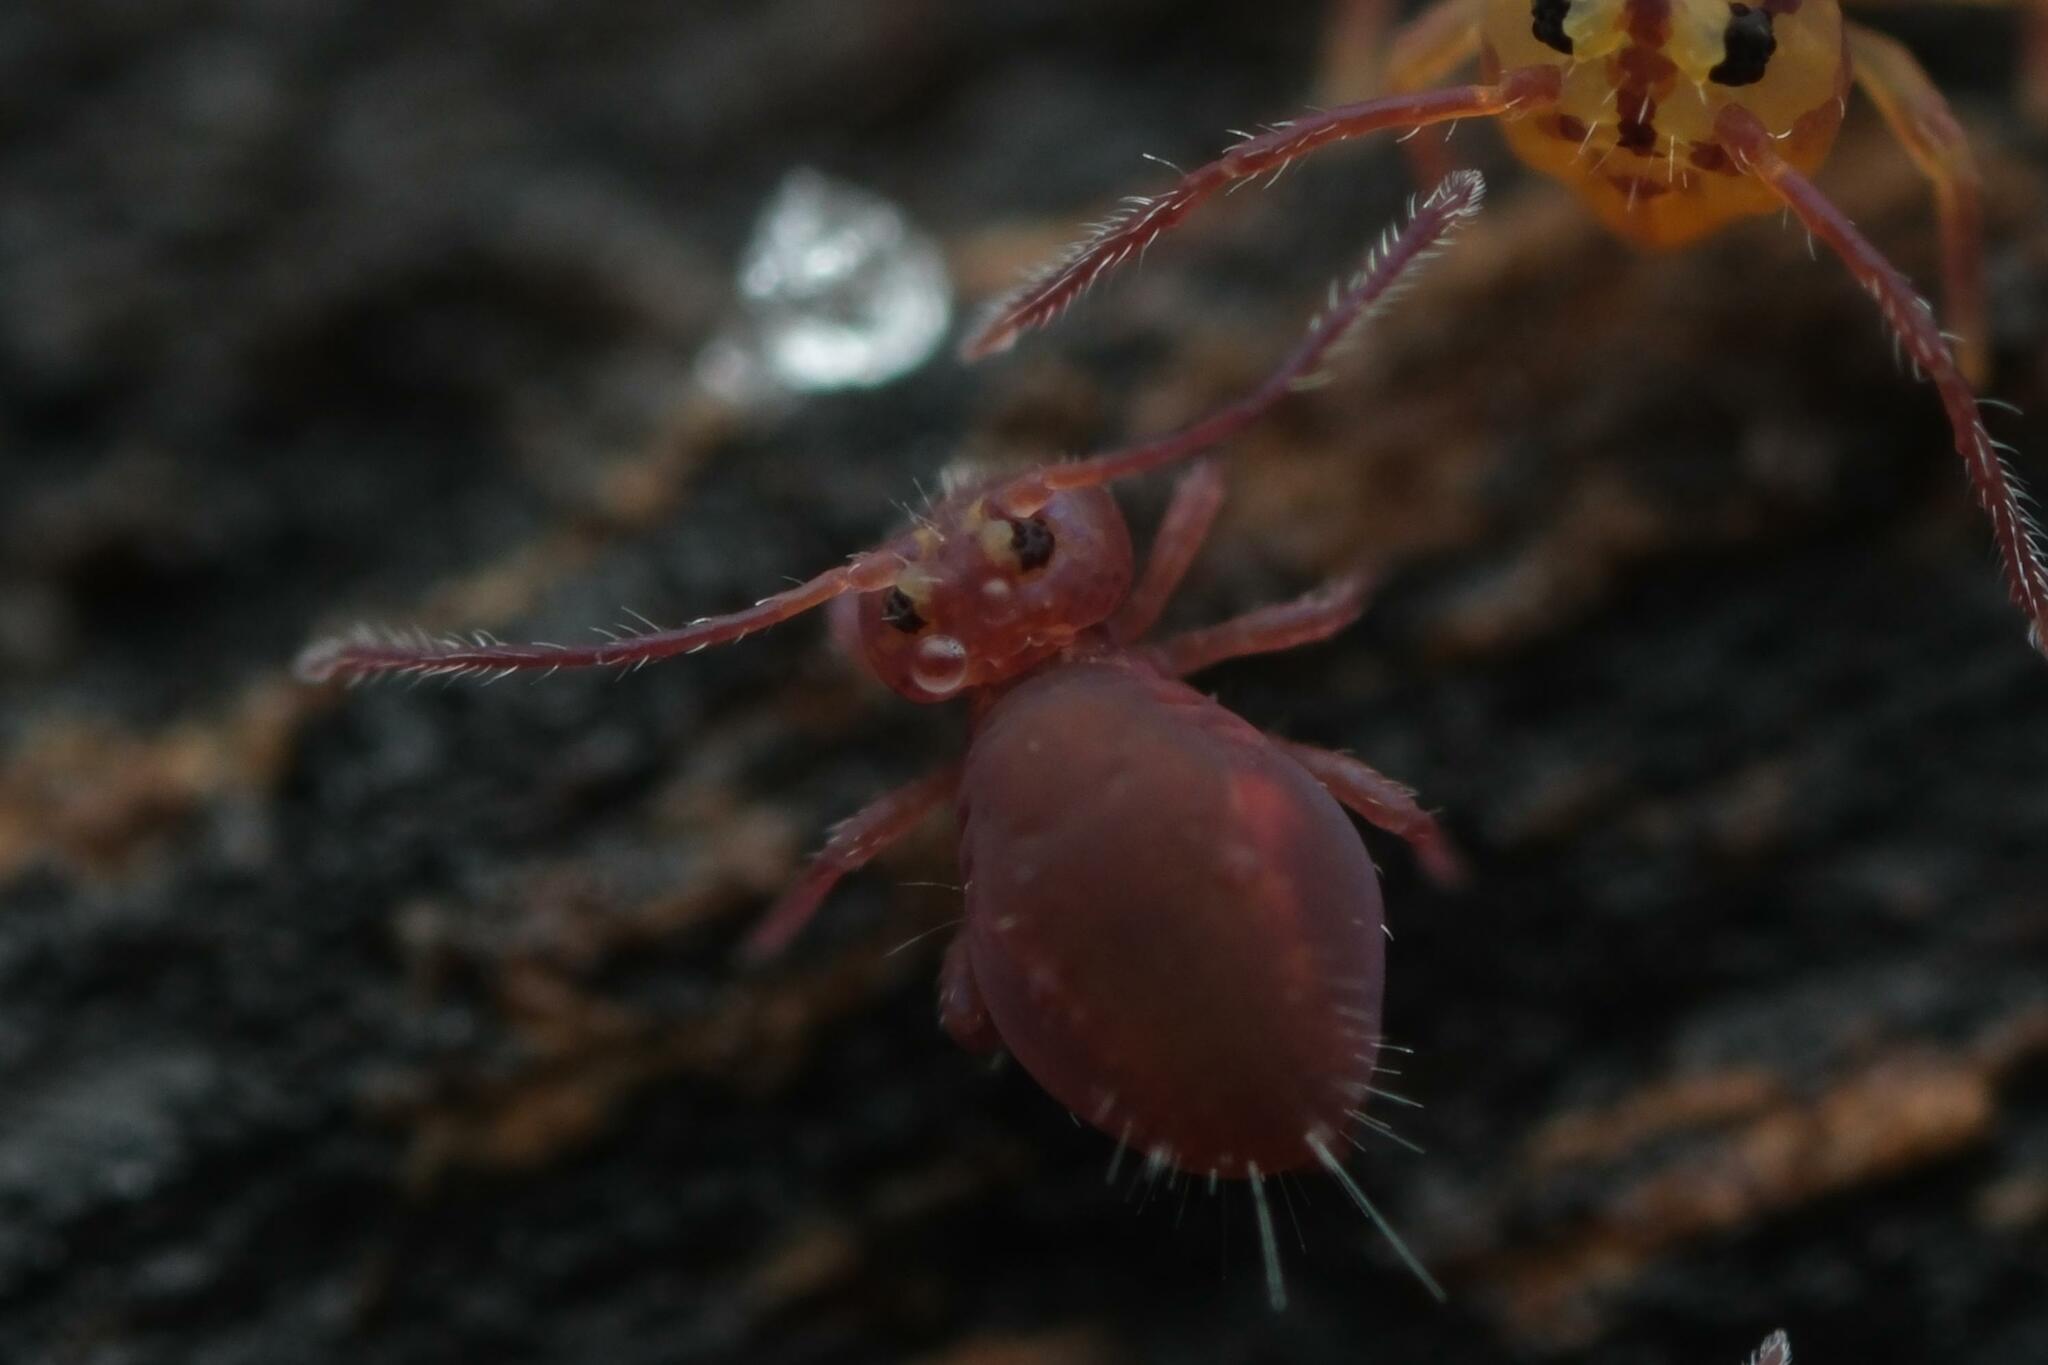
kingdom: Animalia
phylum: Arthropoda
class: Collembola
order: Symphypleona
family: Dicyrtomidae
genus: Dicyrtoma
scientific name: Dicyrtoma fusca
